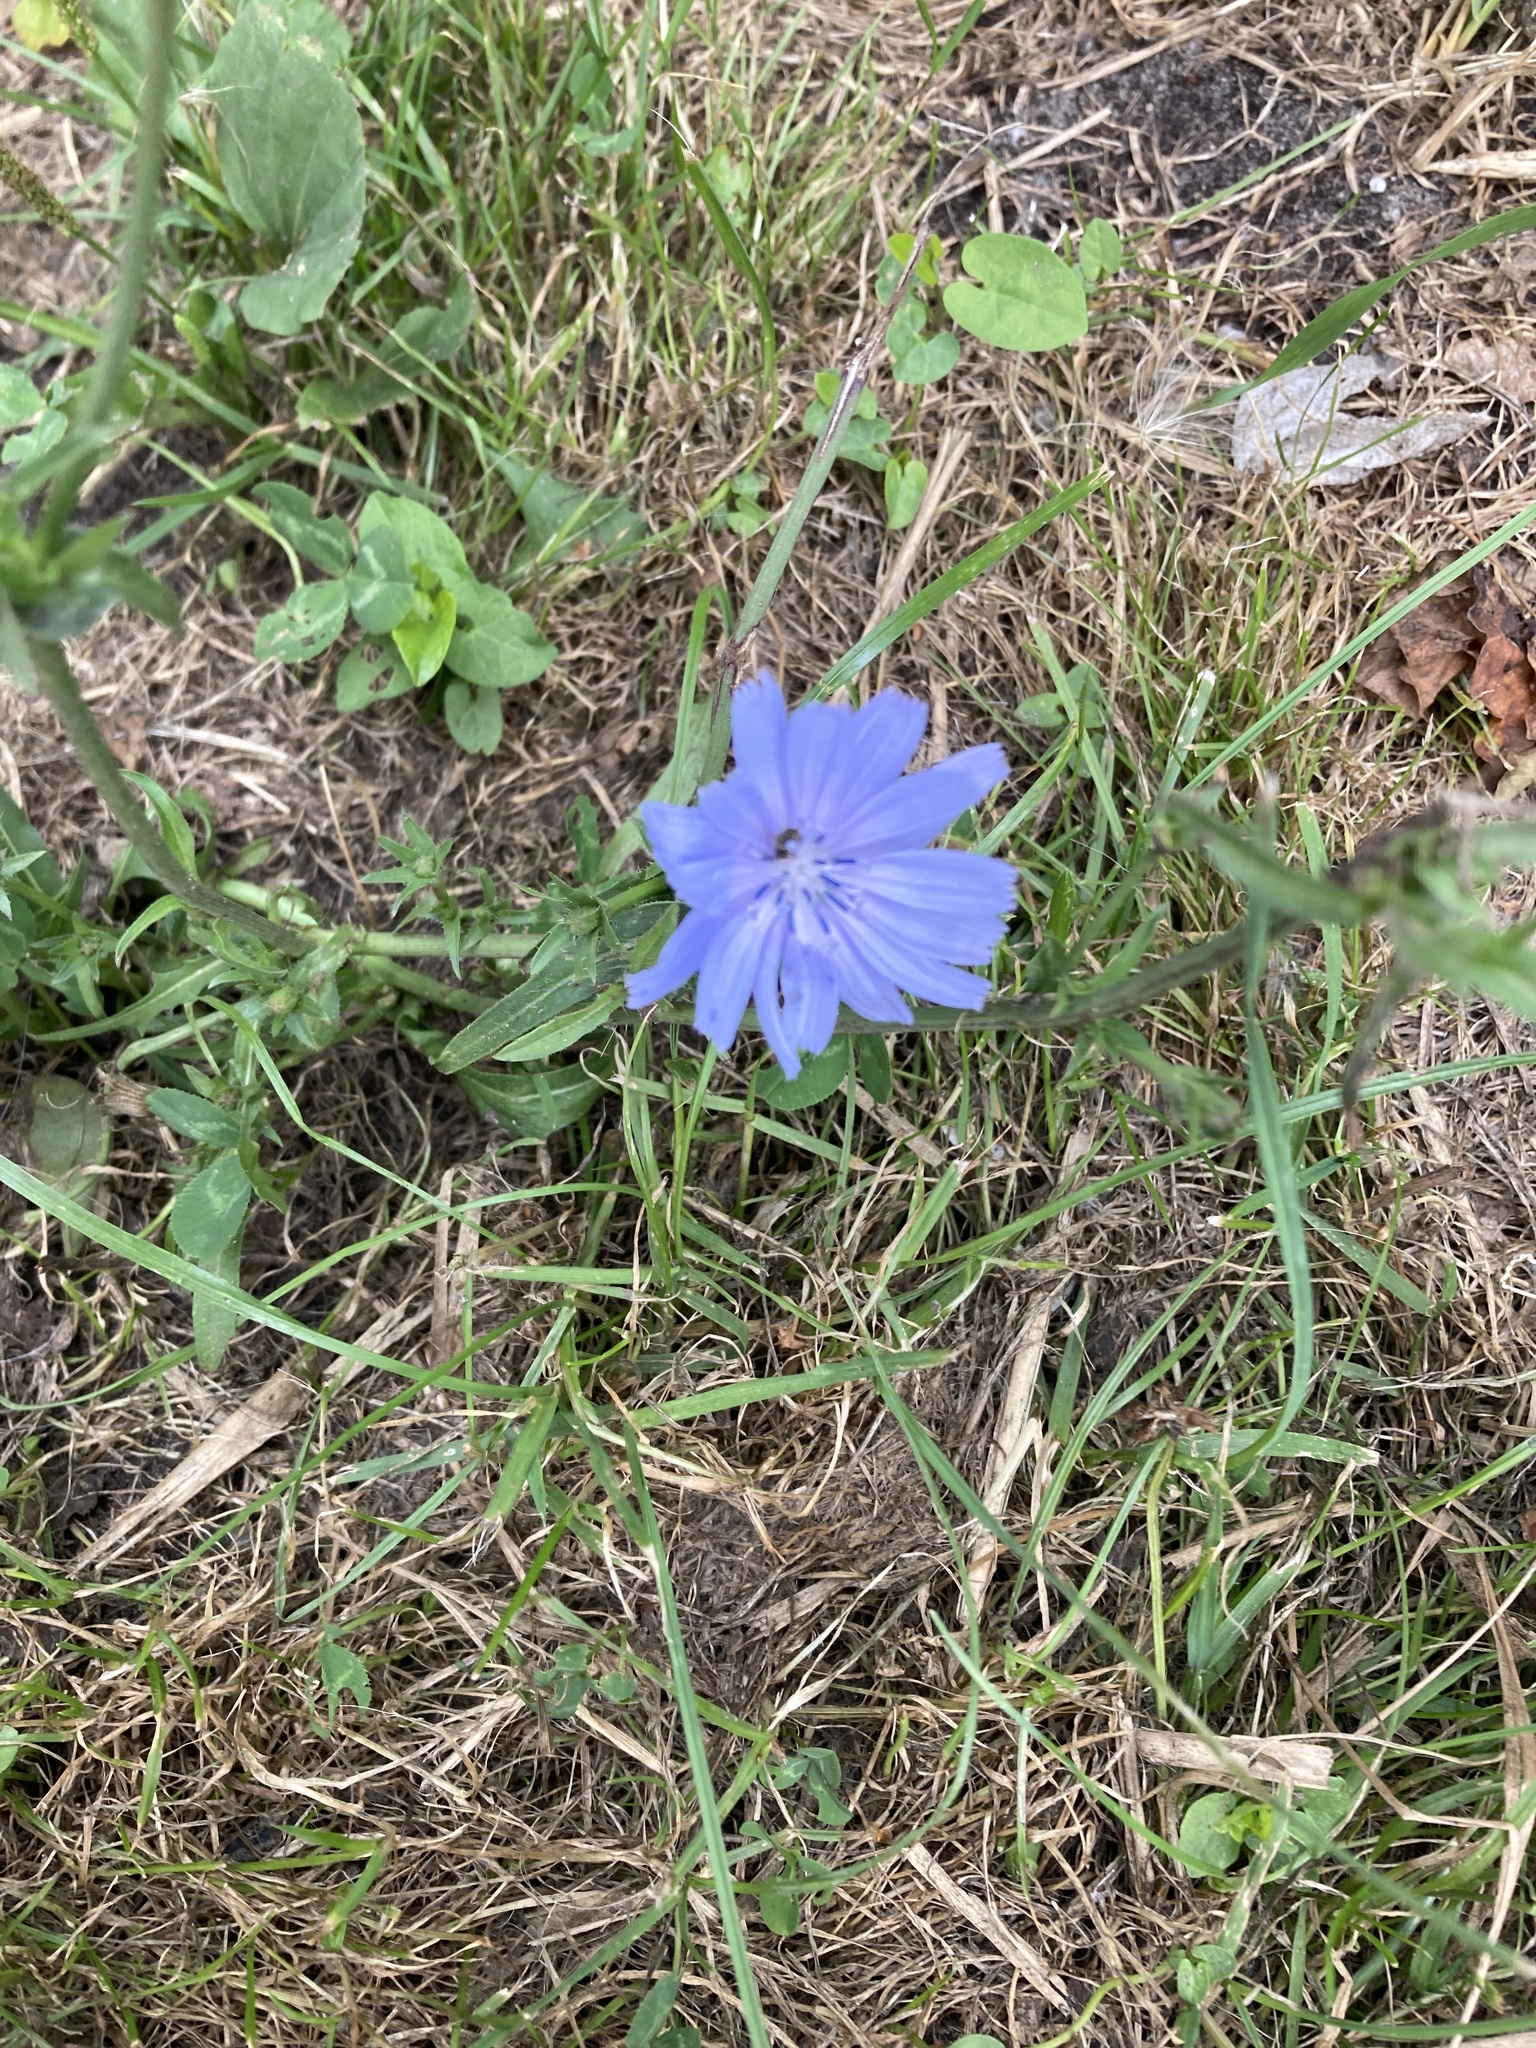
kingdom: Plantae
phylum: Tracheophyta
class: Magnoliopsida
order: Asterales
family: Asteraceae
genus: Cichorium
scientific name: Cichorium intybus
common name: Chicory
